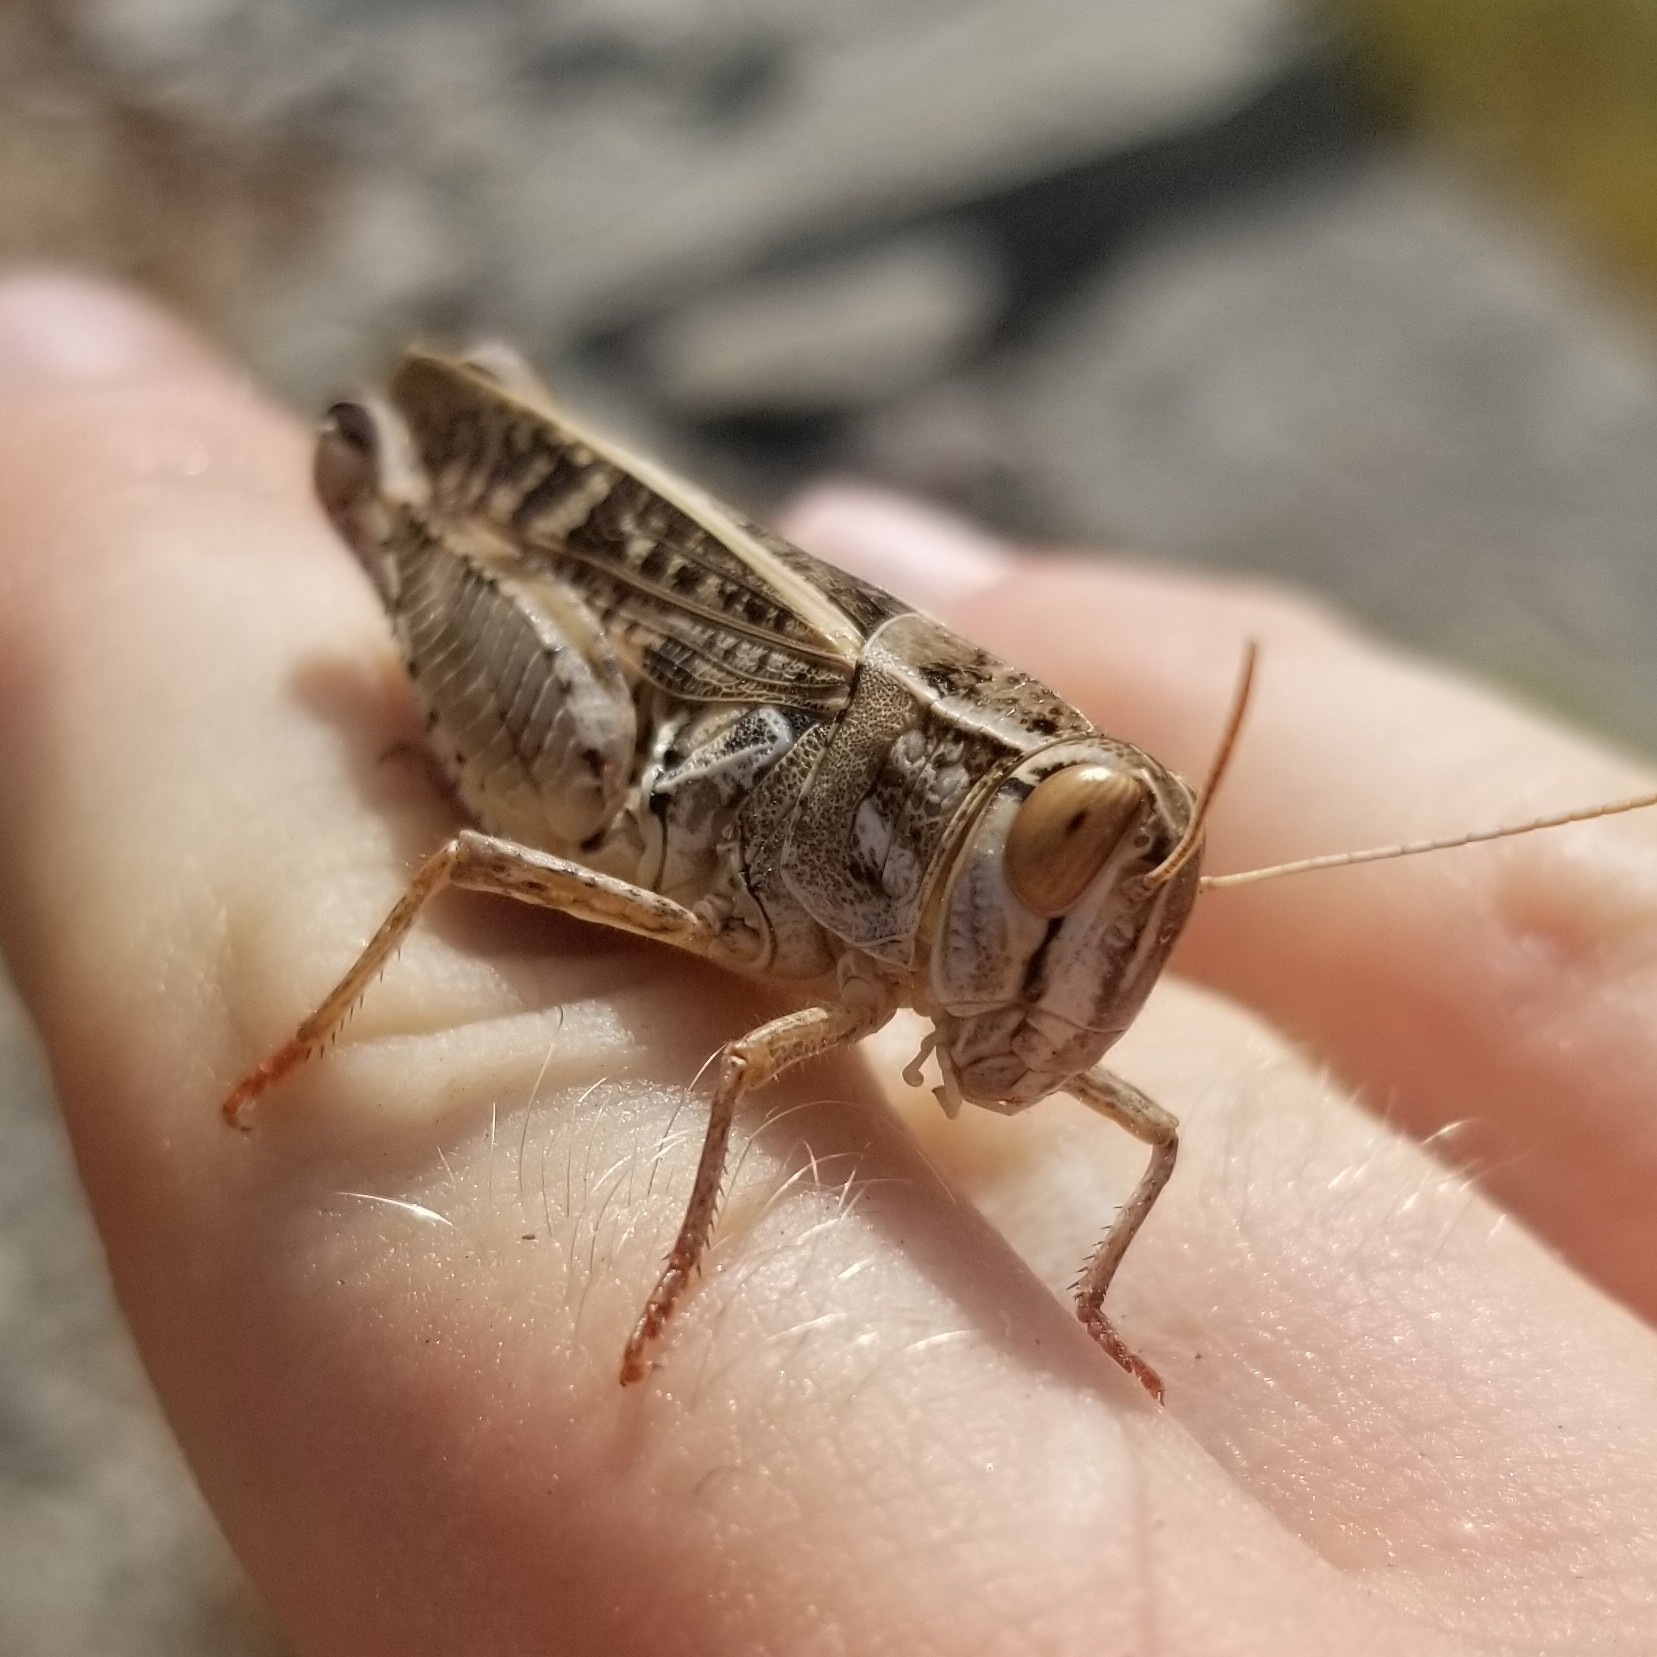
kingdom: Animalia
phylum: Arthropoda
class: Insecta
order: Orthoptera
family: Acrididae
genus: Calliptamus
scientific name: Calliptamus italicus
